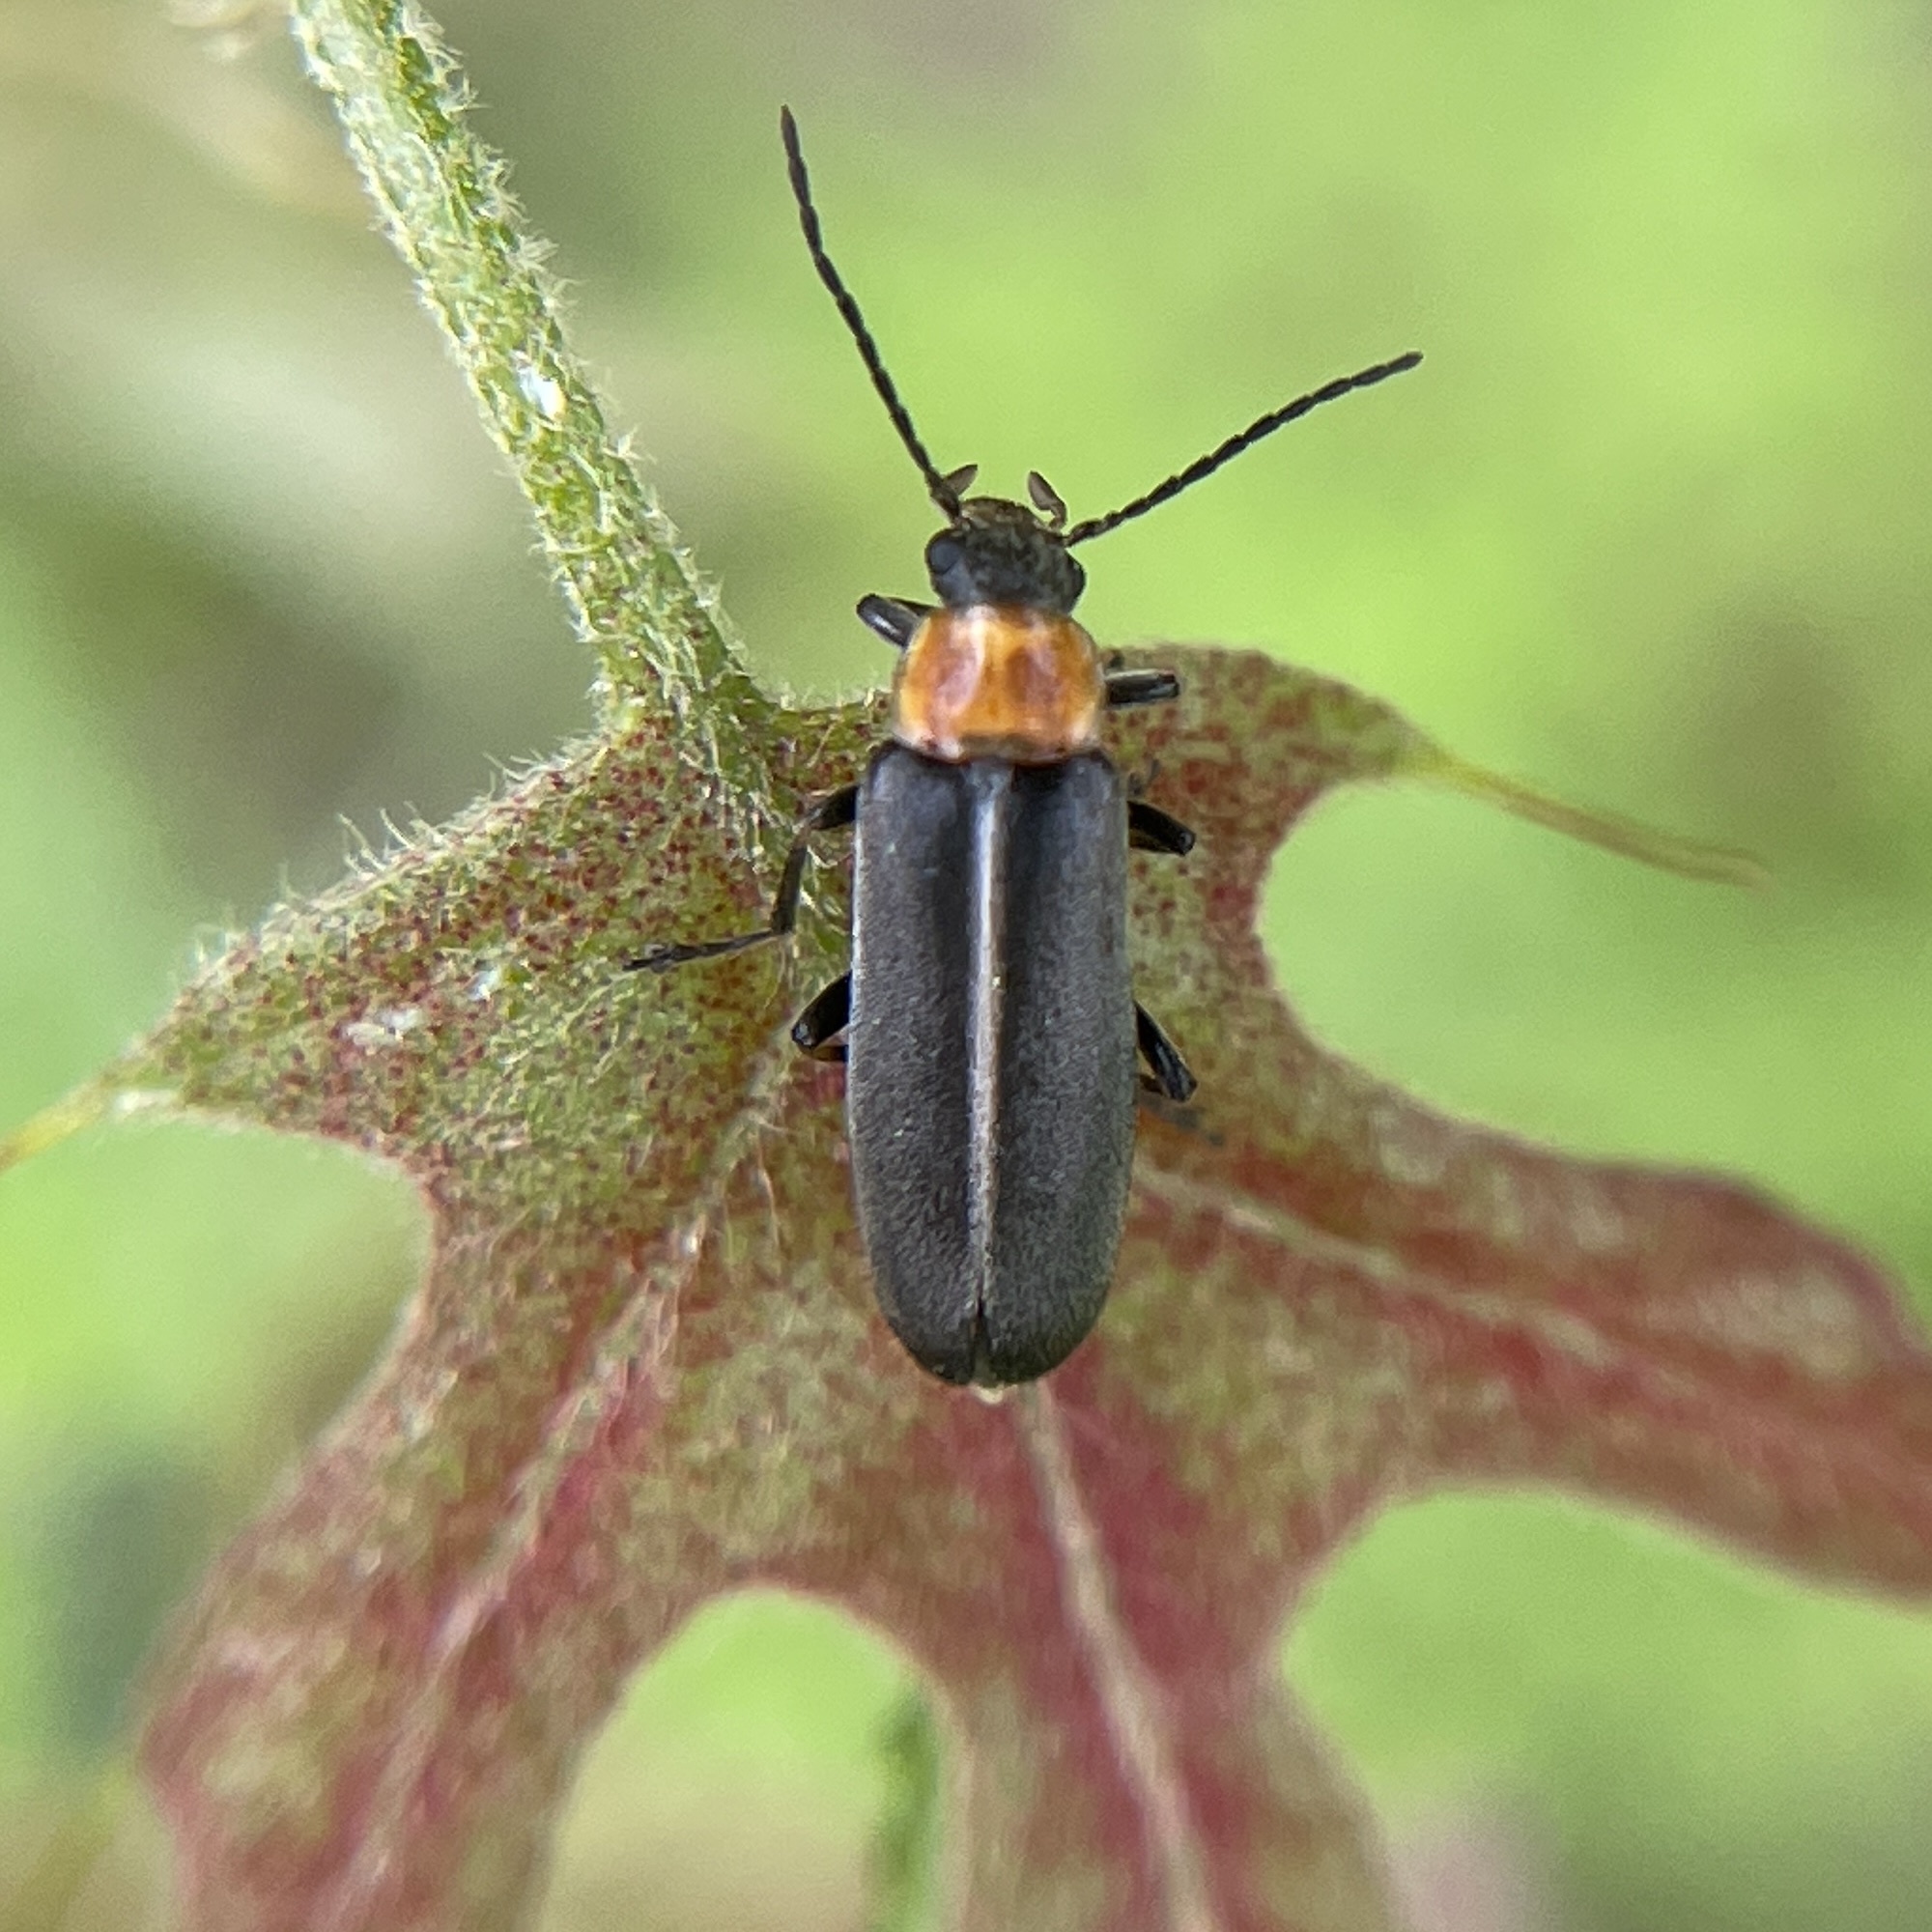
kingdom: Animalia
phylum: Arthropoda
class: Insecta
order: Coleoptera
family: Melandryidae
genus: Osphya
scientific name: Osphya varians
